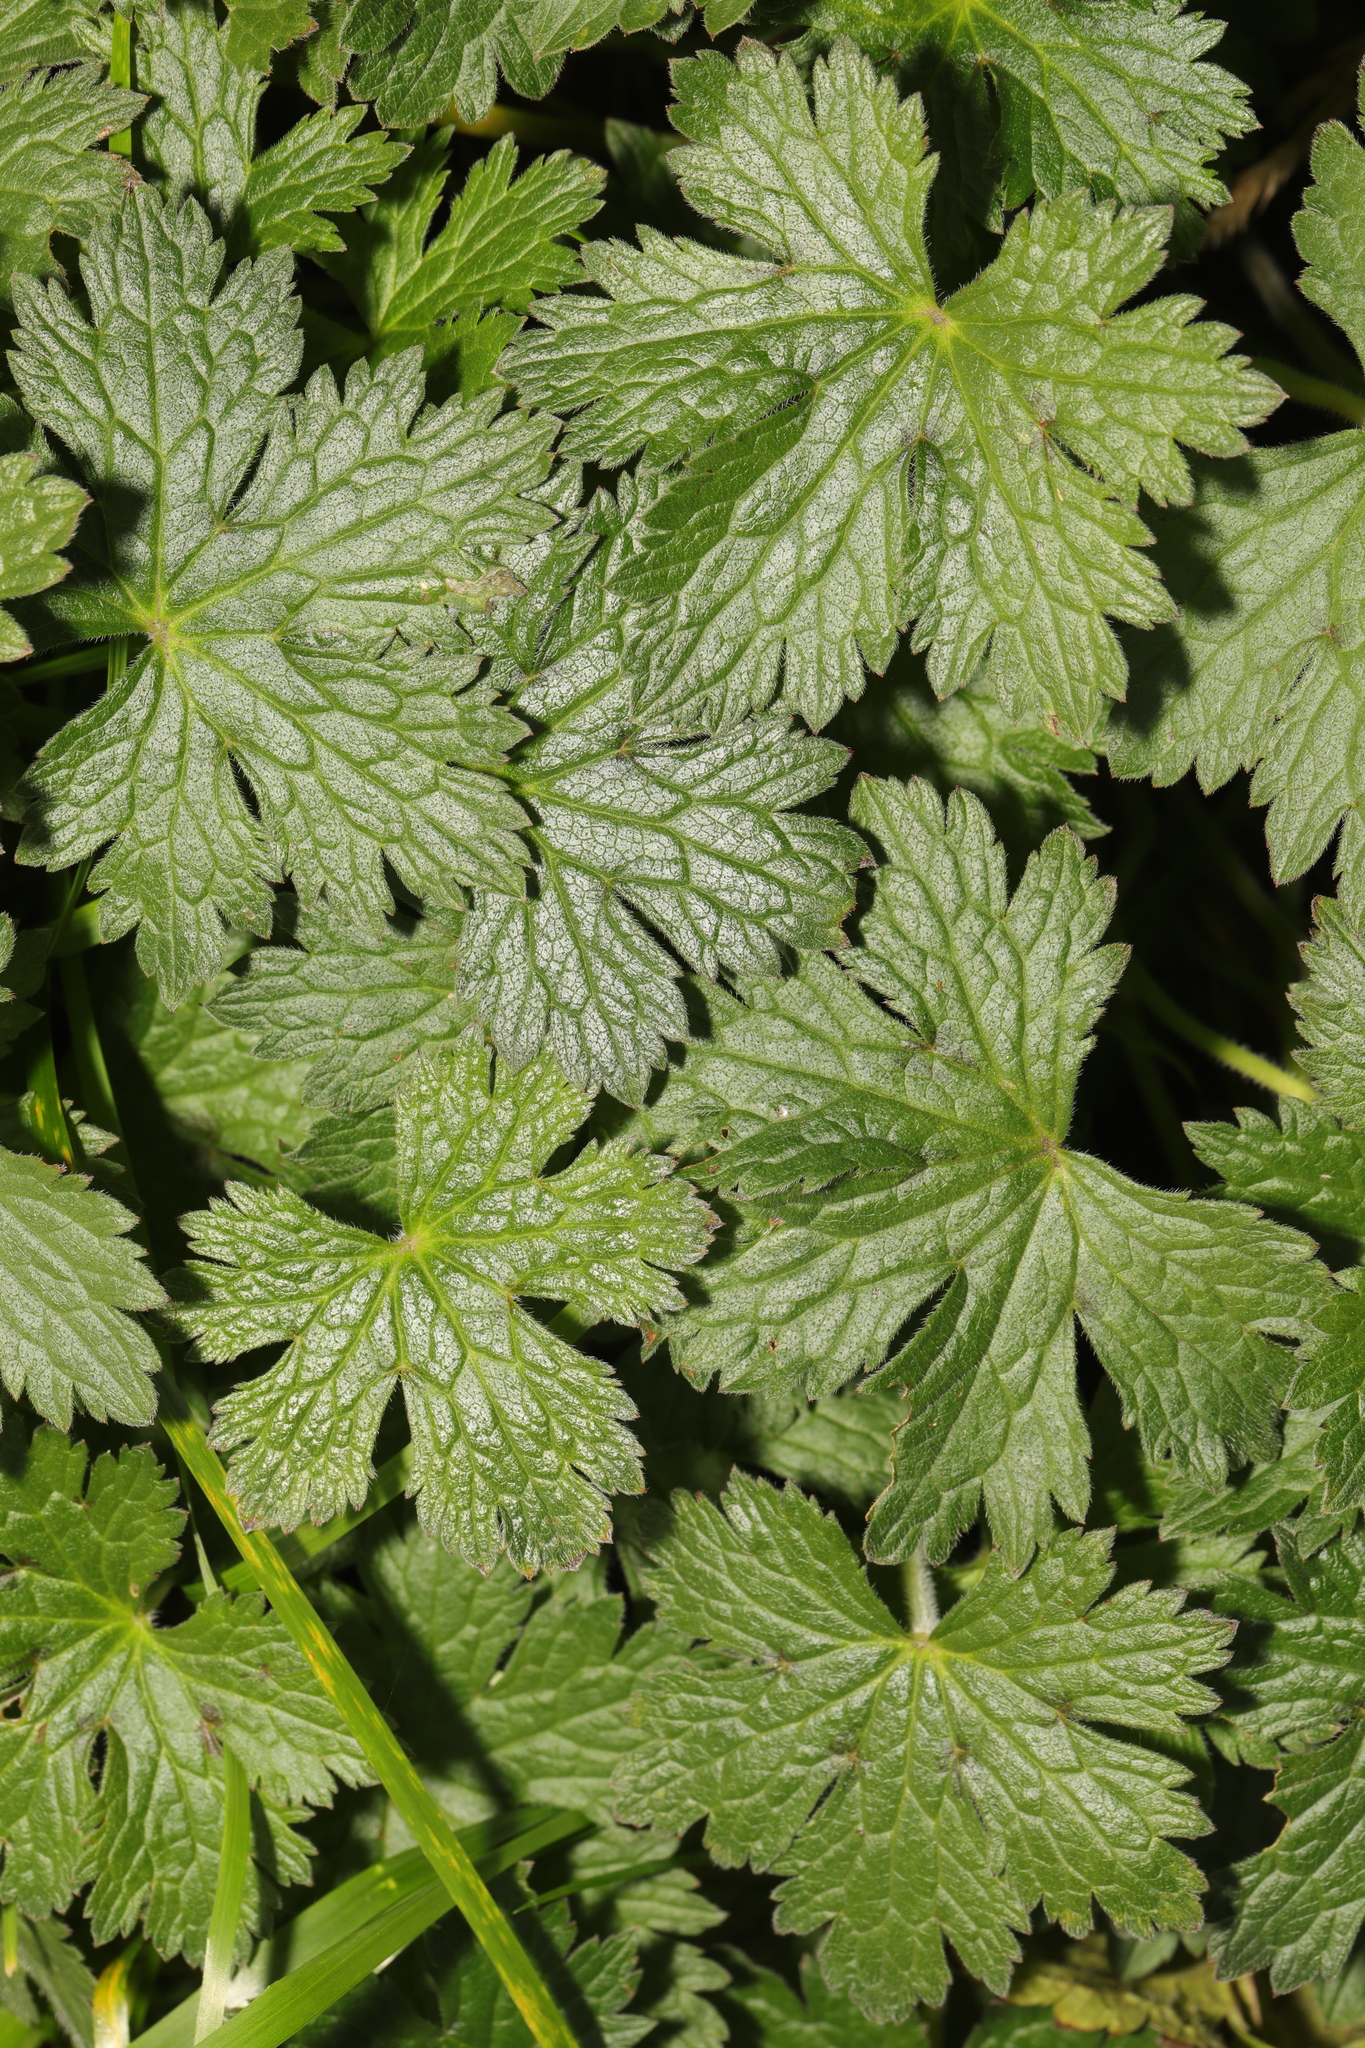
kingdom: Plantae
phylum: Tracheophyta
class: Magnoliopsida
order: Geraniales
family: Geraniaceae
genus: Geranium
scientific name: Geranium oxonianum
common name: Druce's crane's-bill
